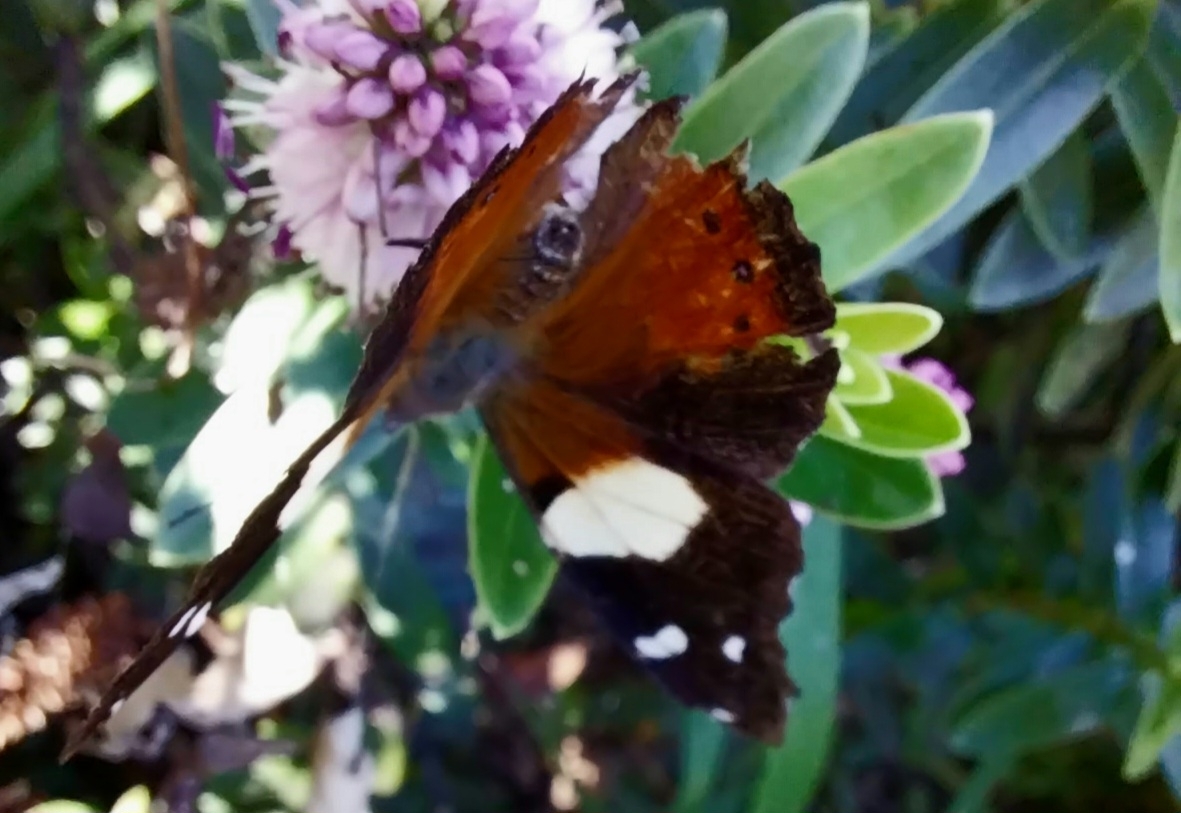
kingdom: Animalia
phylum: Arthropoda
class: Insecta
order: Lepidoptera
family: Nymphalidae
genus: Vanessa
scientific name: Vanessa itea
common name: Yellow admiral
